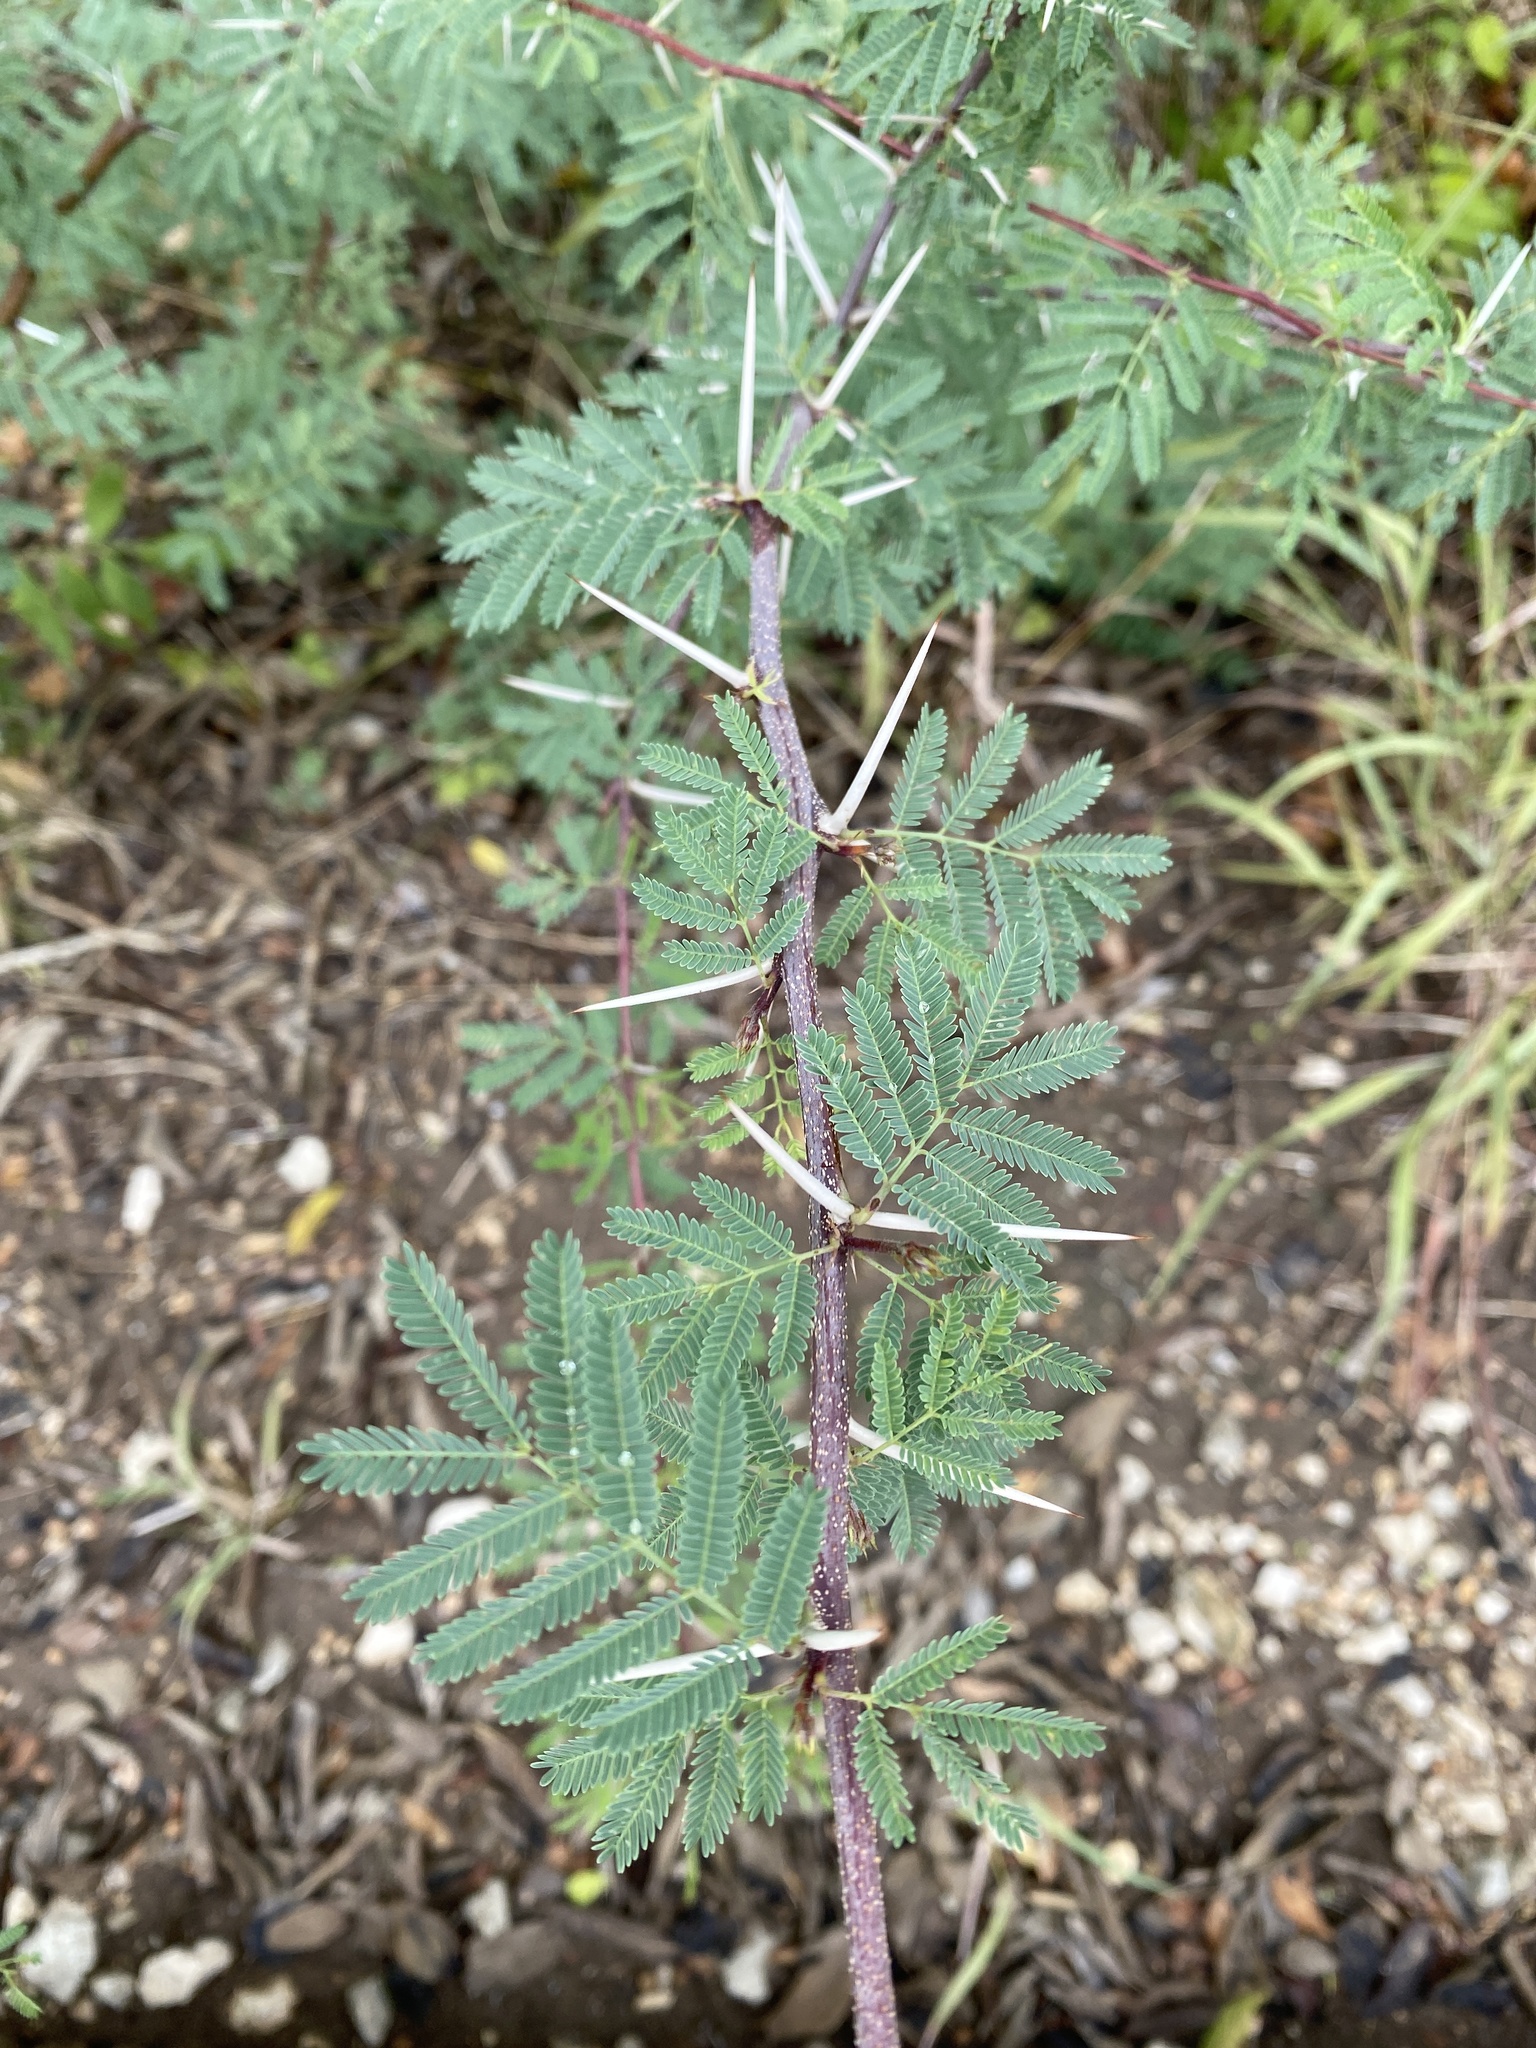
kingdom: Plantae
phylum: Tracheophyta
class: Magnoliopsida
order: Fabales
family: Fabaceae
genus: Vachellia
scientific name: Vachellia farnesiana
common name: Sweet acacia
